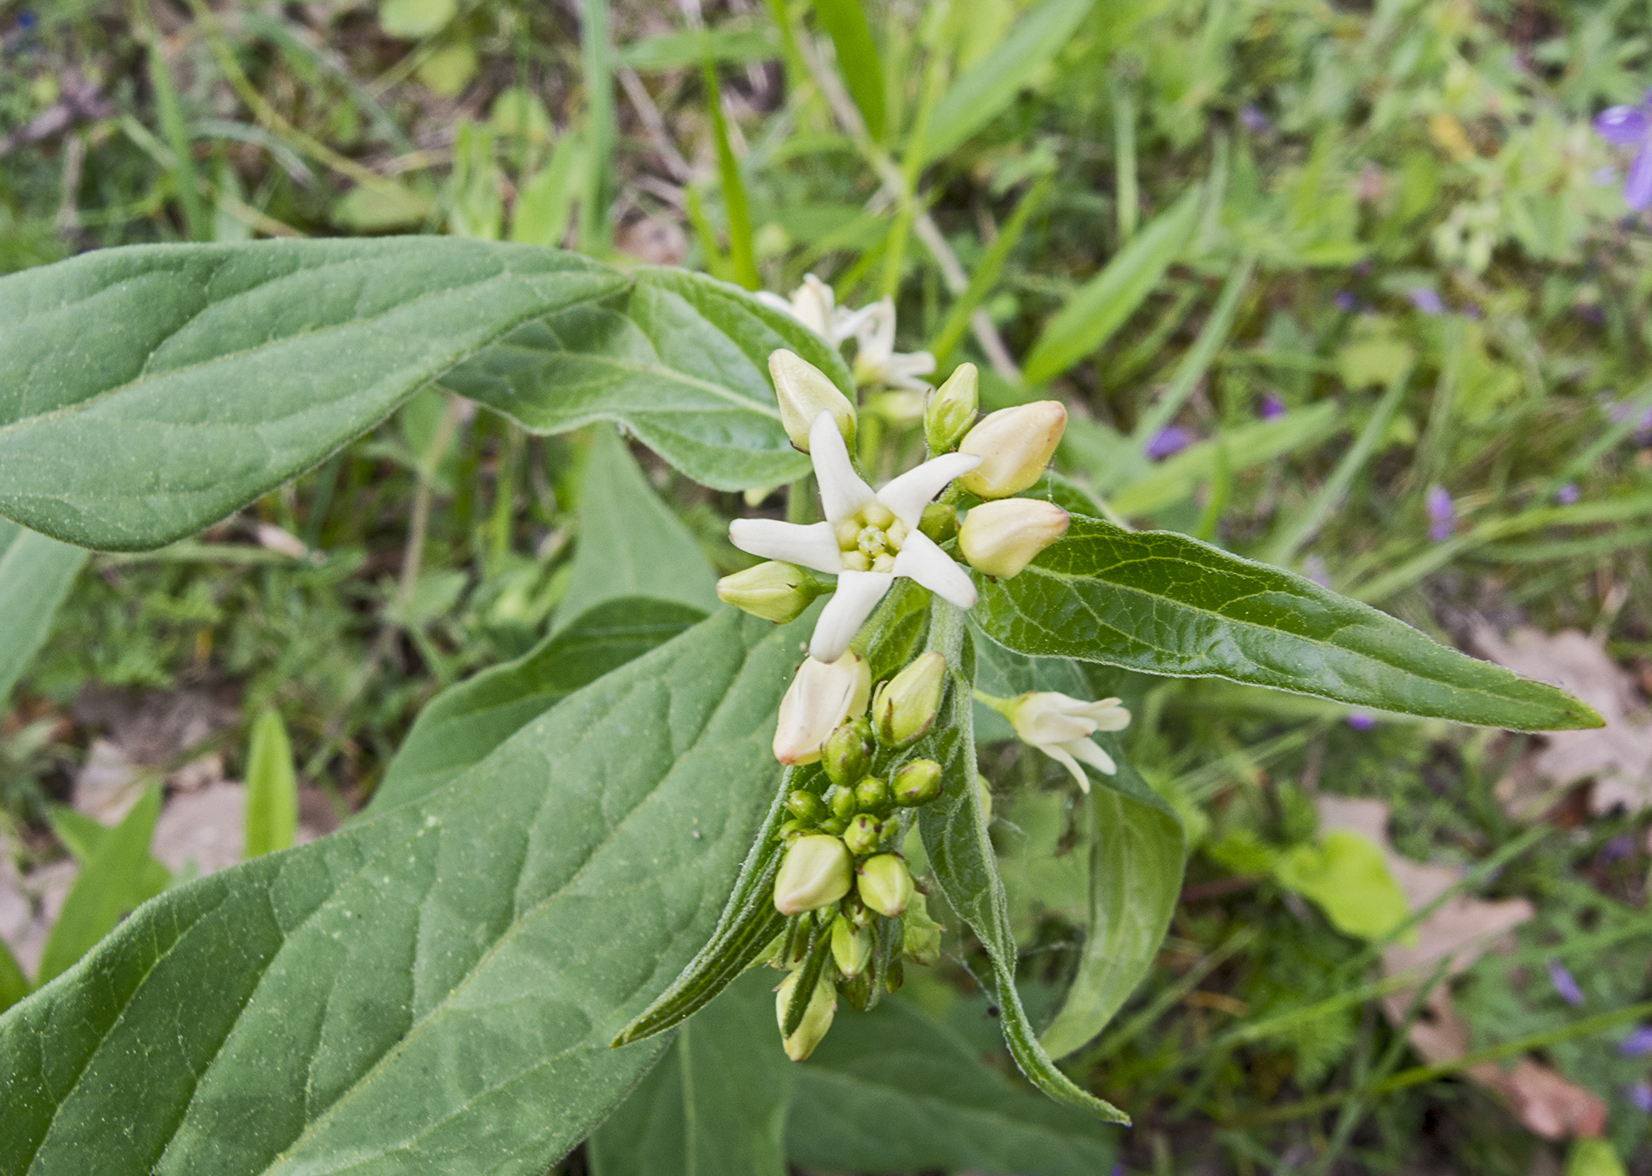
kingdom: Plantae
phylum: Tracheophyta
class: Magnoliopsida
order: Gentianales
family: Apocynaceae
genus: Vincetoxicum
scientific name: Vincetoxicum hirundinaria
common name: White swallowwort
